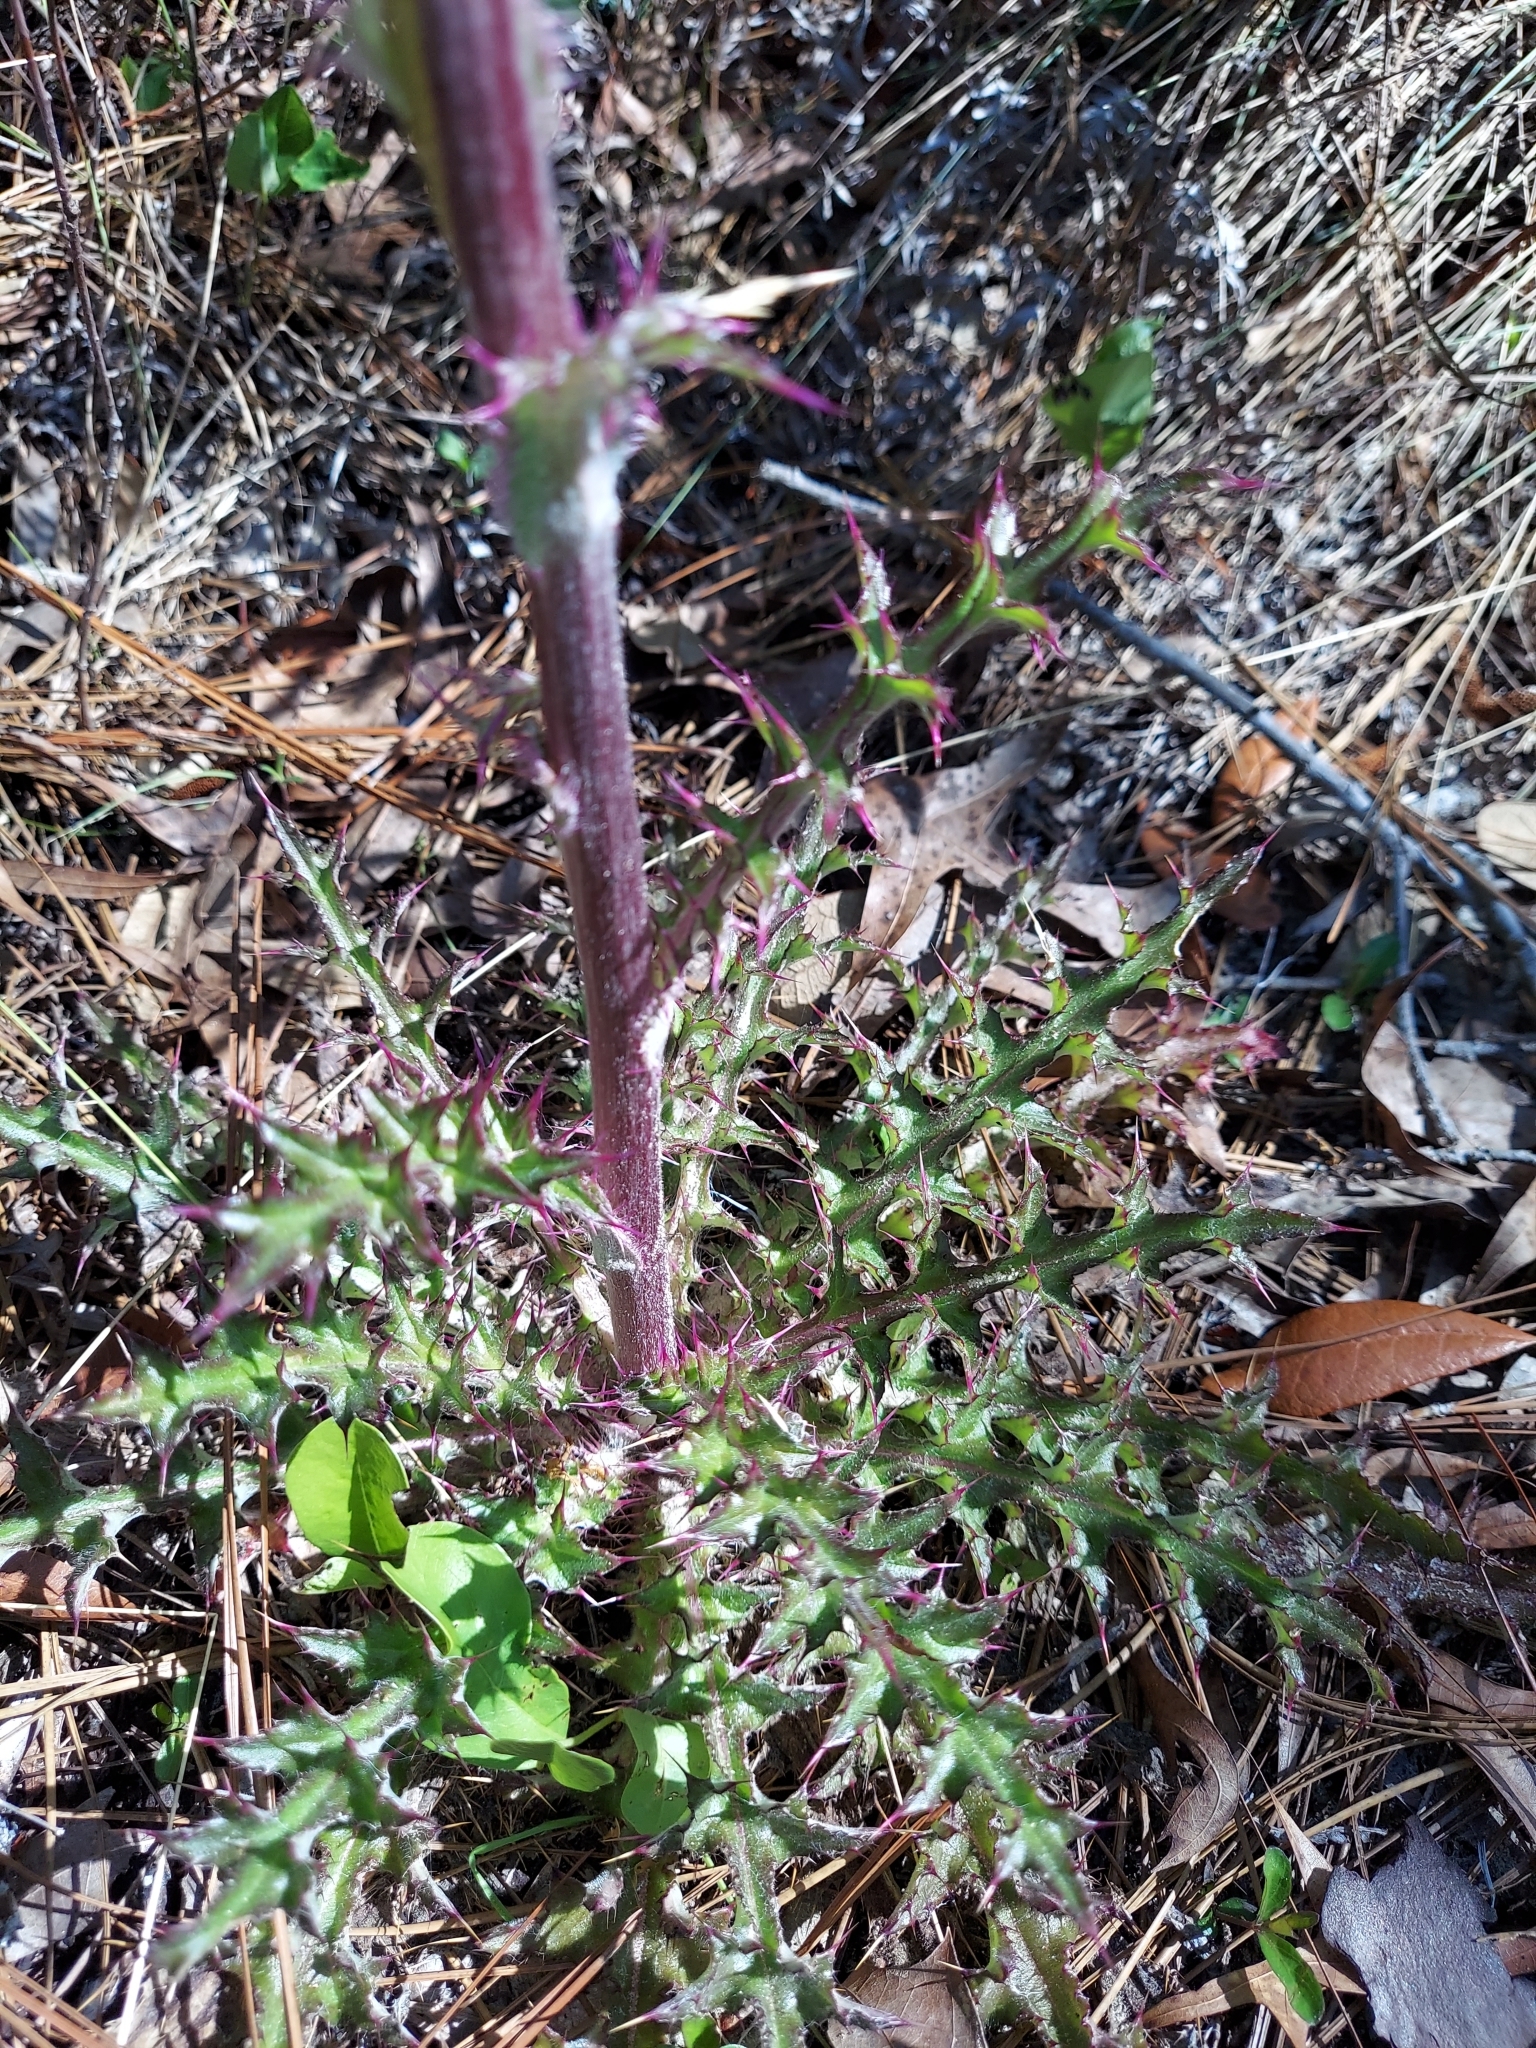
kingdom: Plantae
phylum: Tracheophyta
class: Magnoliopsida
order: Asterales
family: Asteraceae
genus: Cirsium
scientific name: Cirsium horridulum
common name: Bristly thistle
